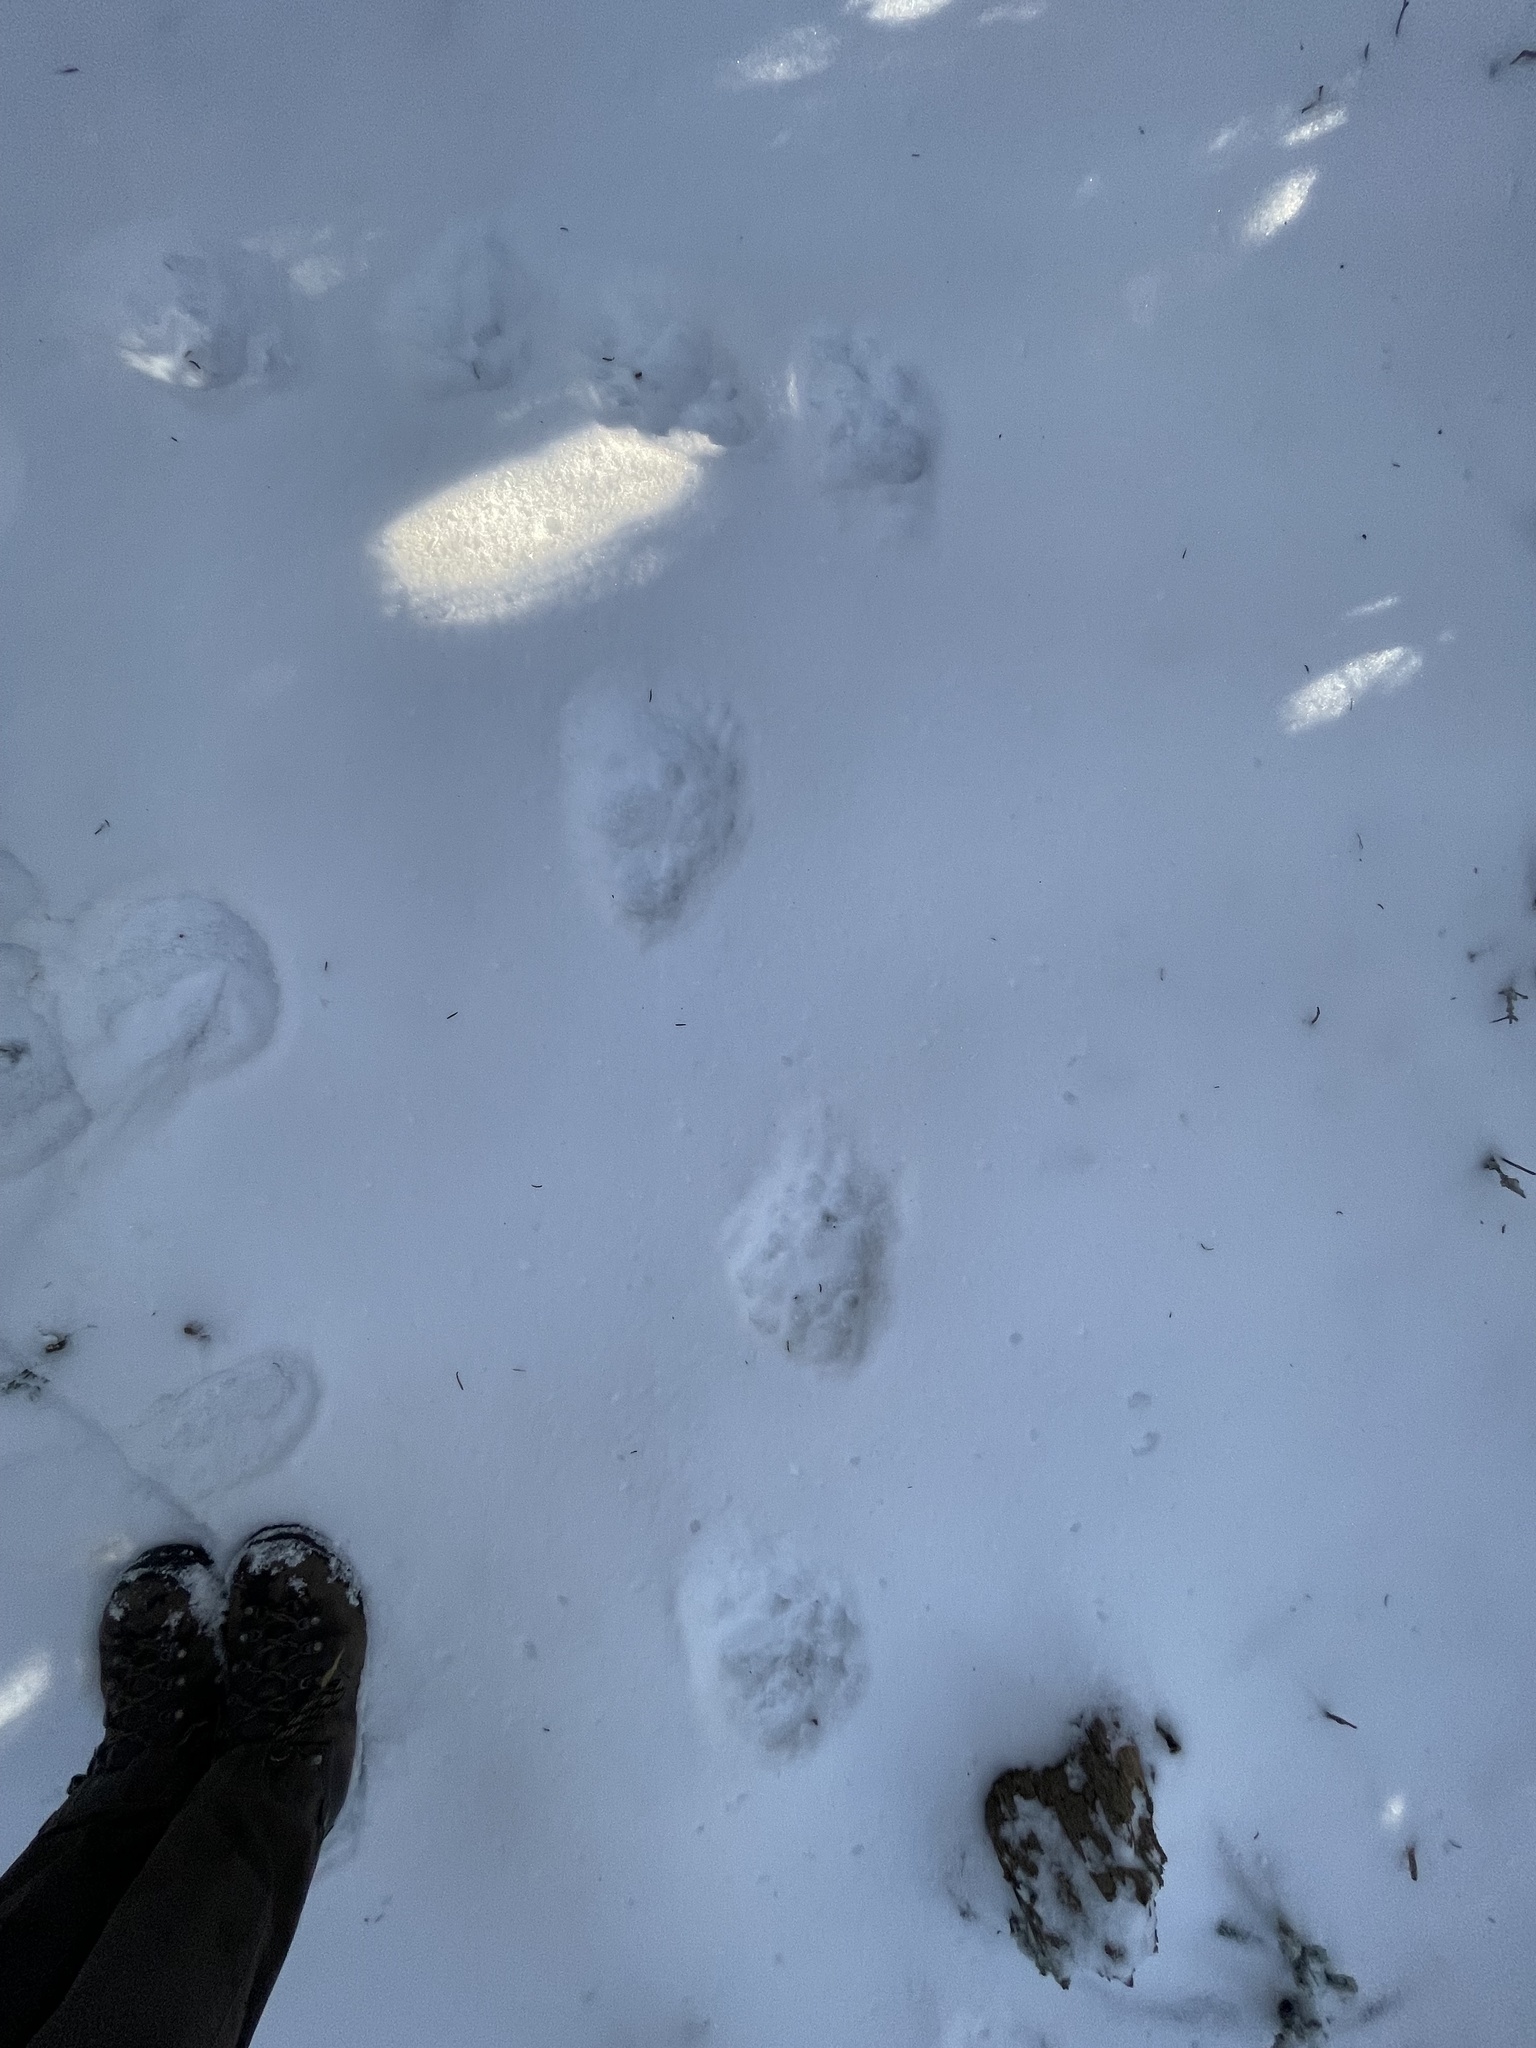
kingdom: Animalia
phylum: Chordata
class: Mammalia
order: Carnivora
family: Ursidae
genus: Ursus
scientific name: Ursus americanus
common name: American black bear
